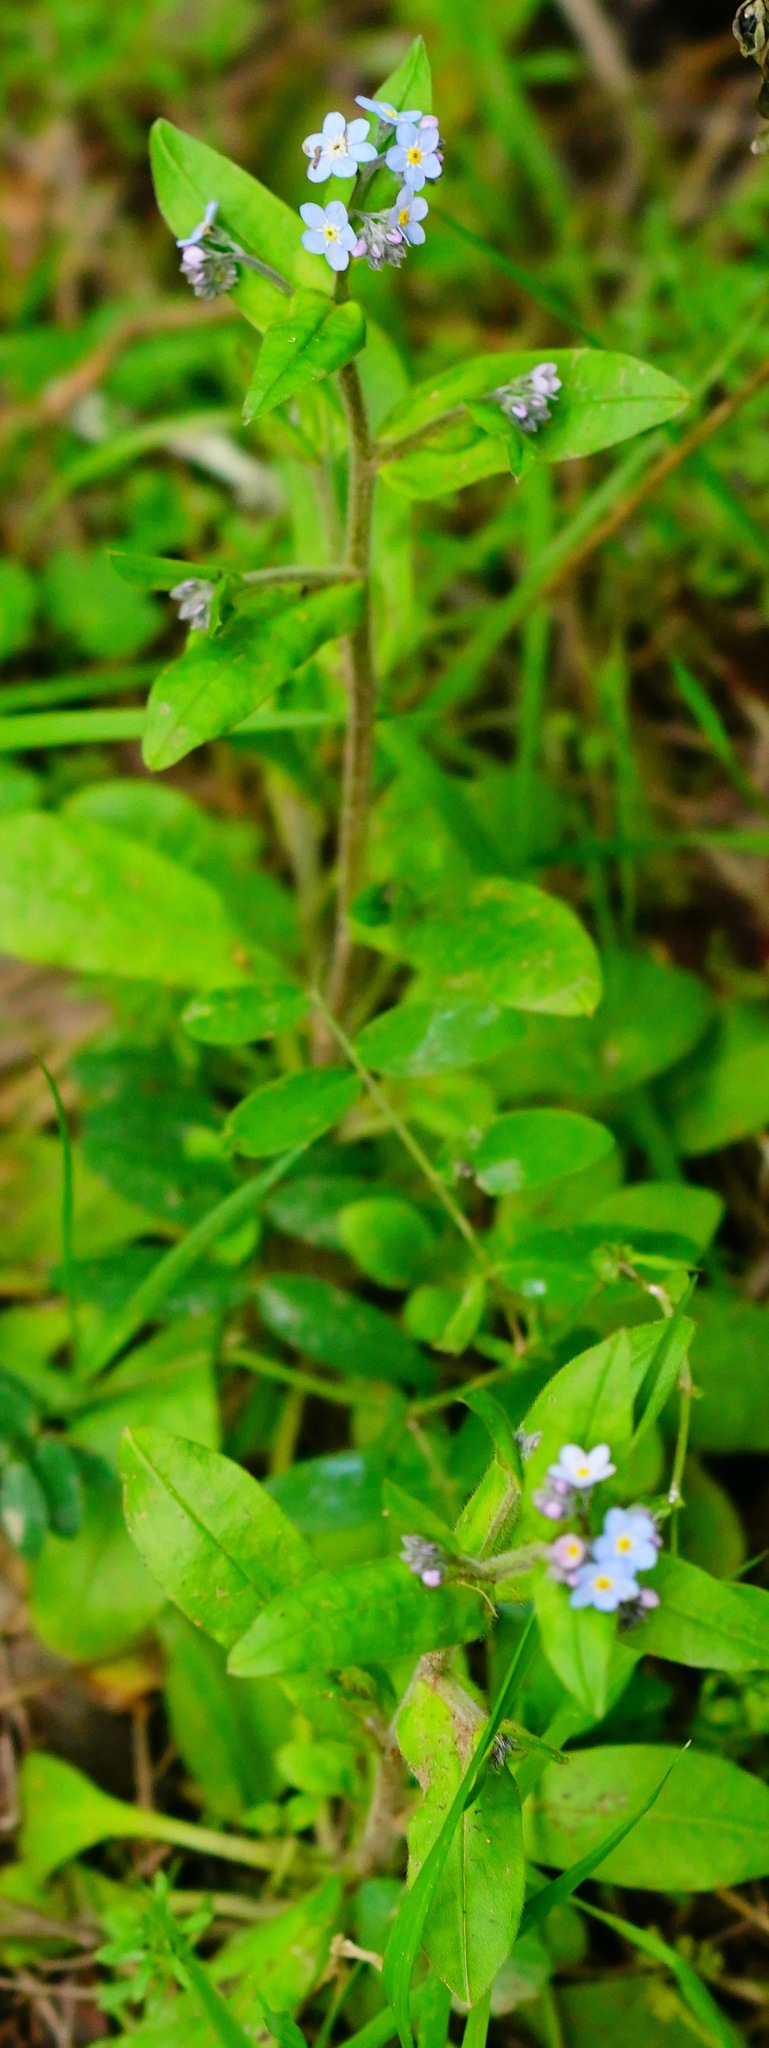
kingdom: Plantae
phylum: Tracheophyta
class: Magnoliopsida
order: Boraginales
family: Boraginaceae
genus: Myosotis
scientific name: Myosotis latifolia
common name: Broadleaf forget-me-not
